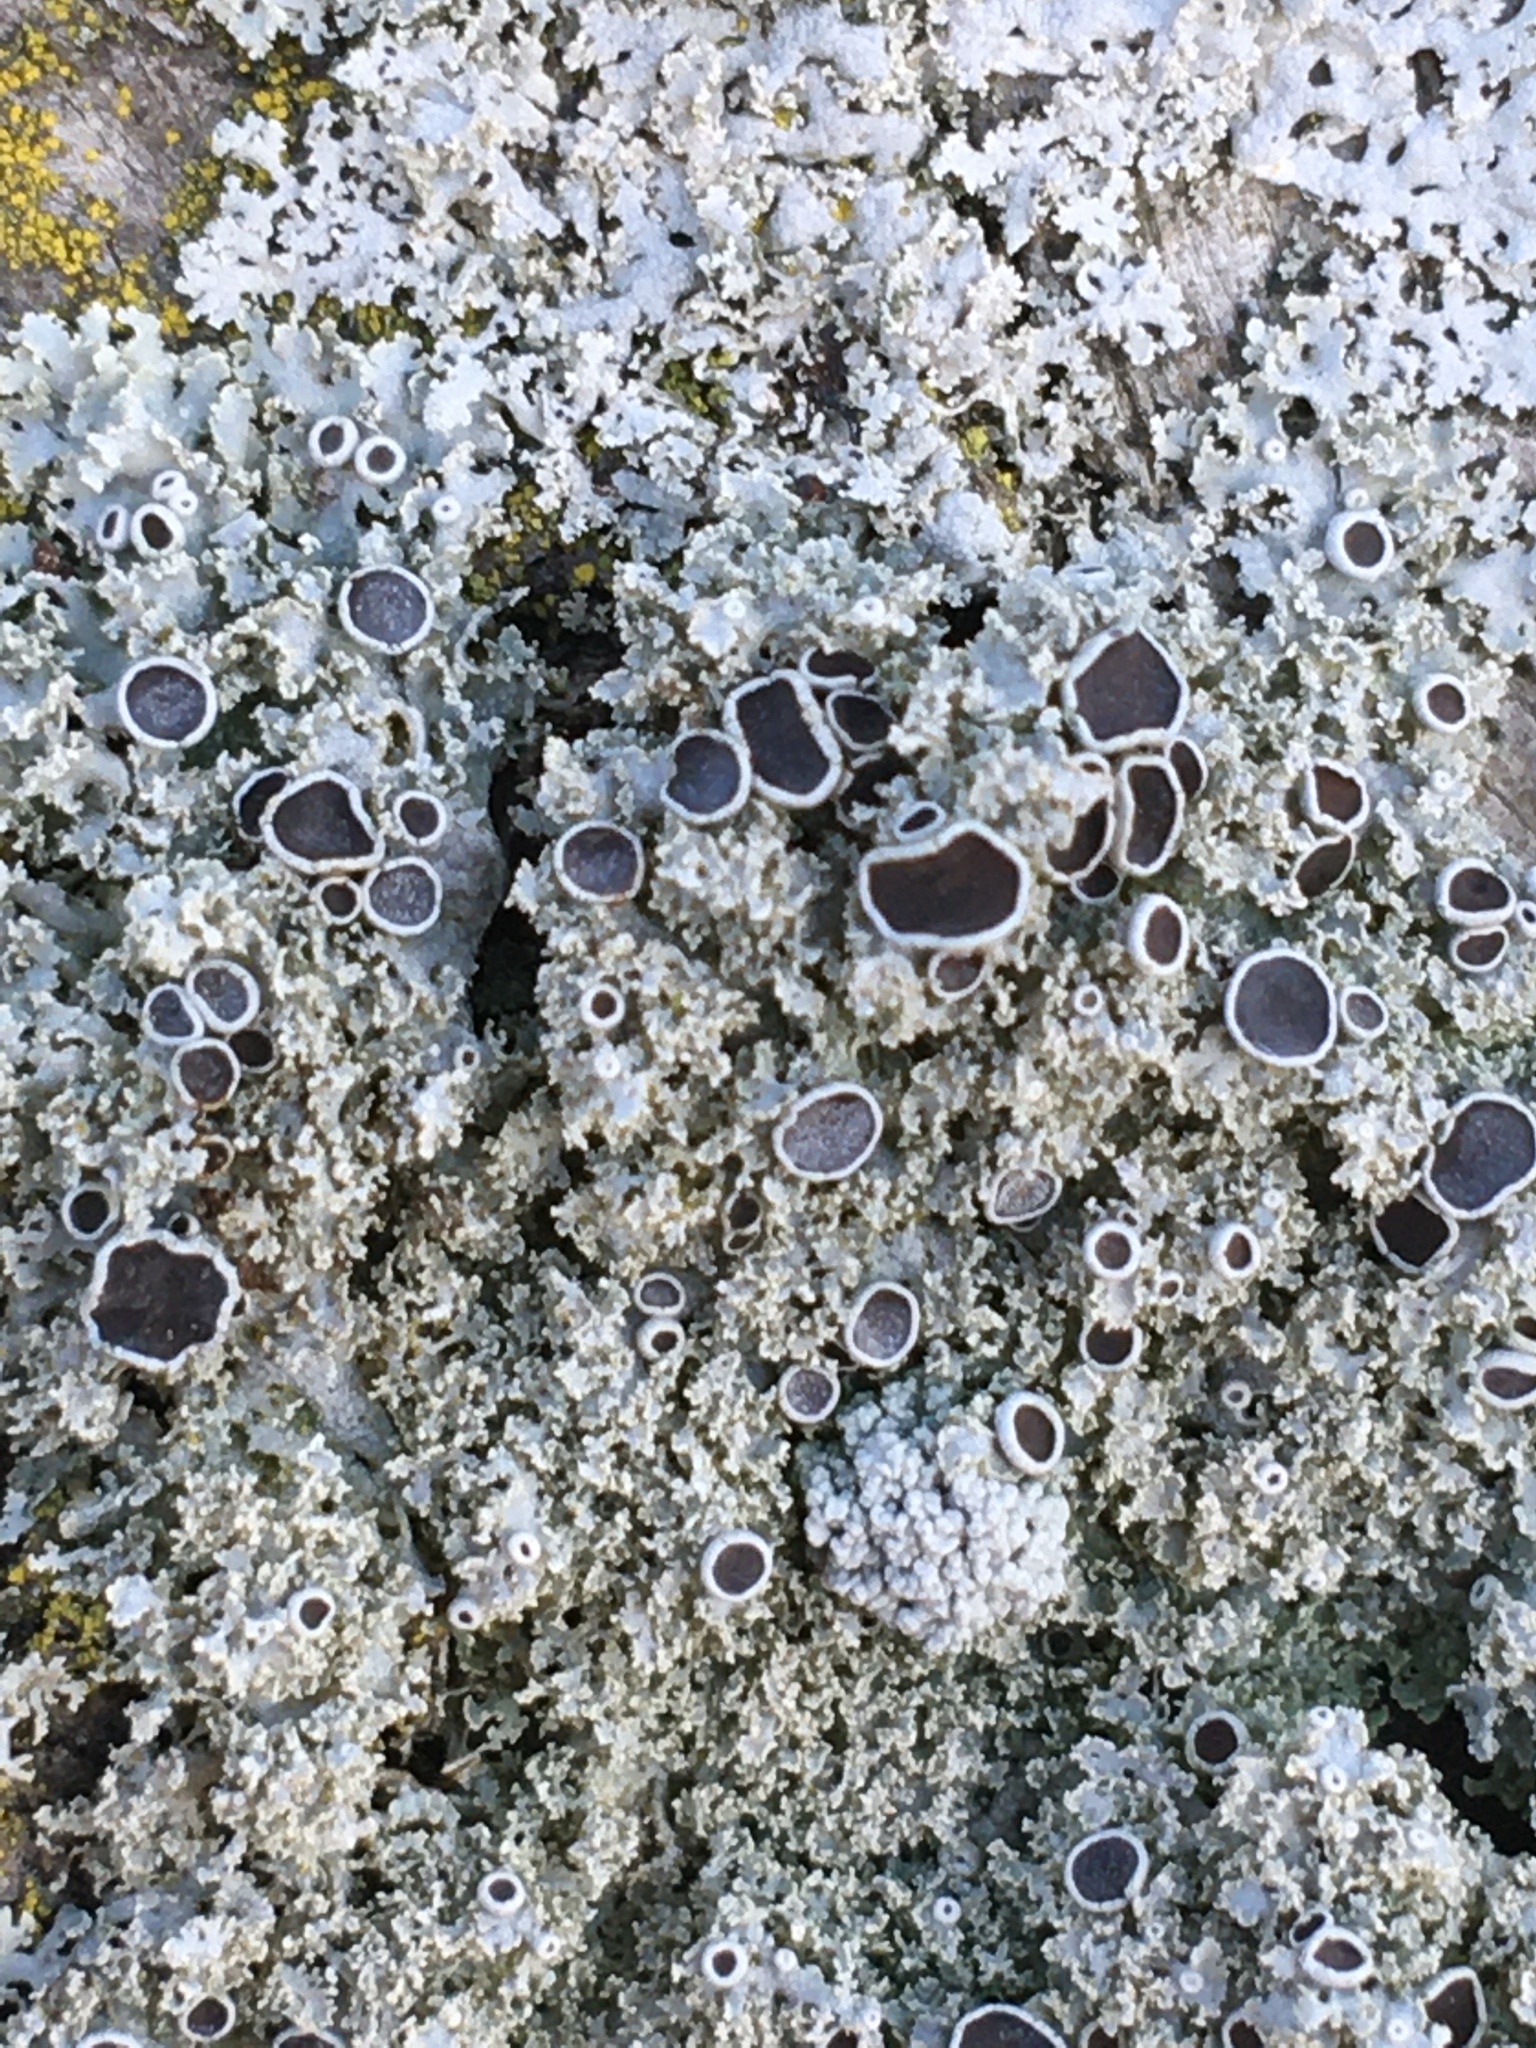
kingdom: Fungi
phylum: Ascomycota
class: Lecanoromycetes
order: Caliciales
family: Physciaceae
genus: Physcia
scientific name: Physcia millegrana
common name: Rosette lichen
